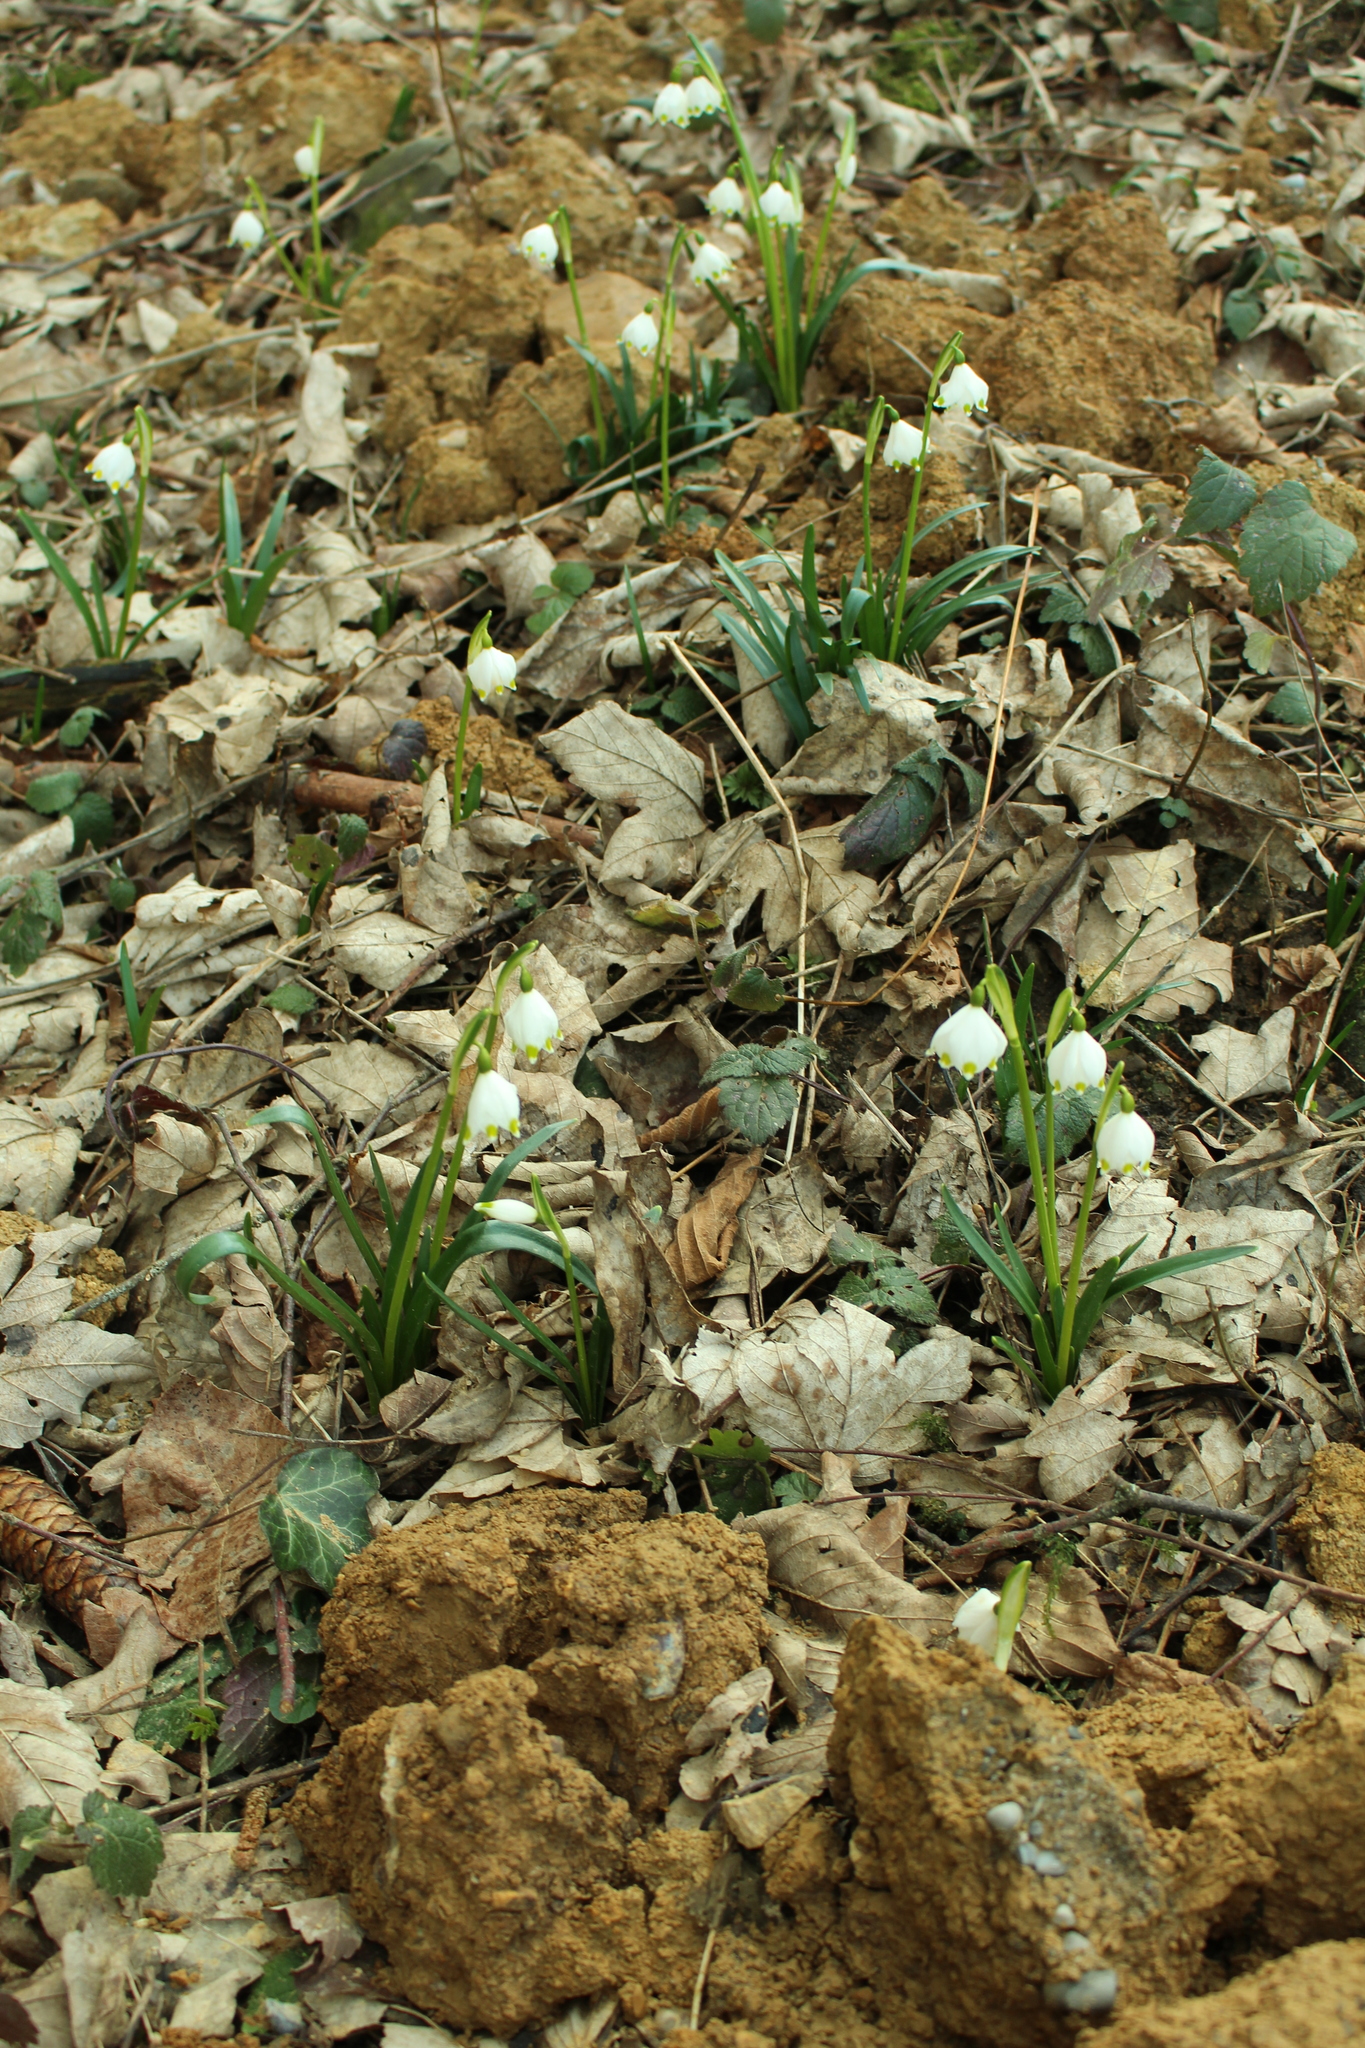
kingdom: Plantae
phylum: Tracheophyta
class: Liliopsida
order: Asparagales
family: Amaryllidaceae
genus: Leucojum
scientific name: Leucojum vernum
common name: Spring snowflake
